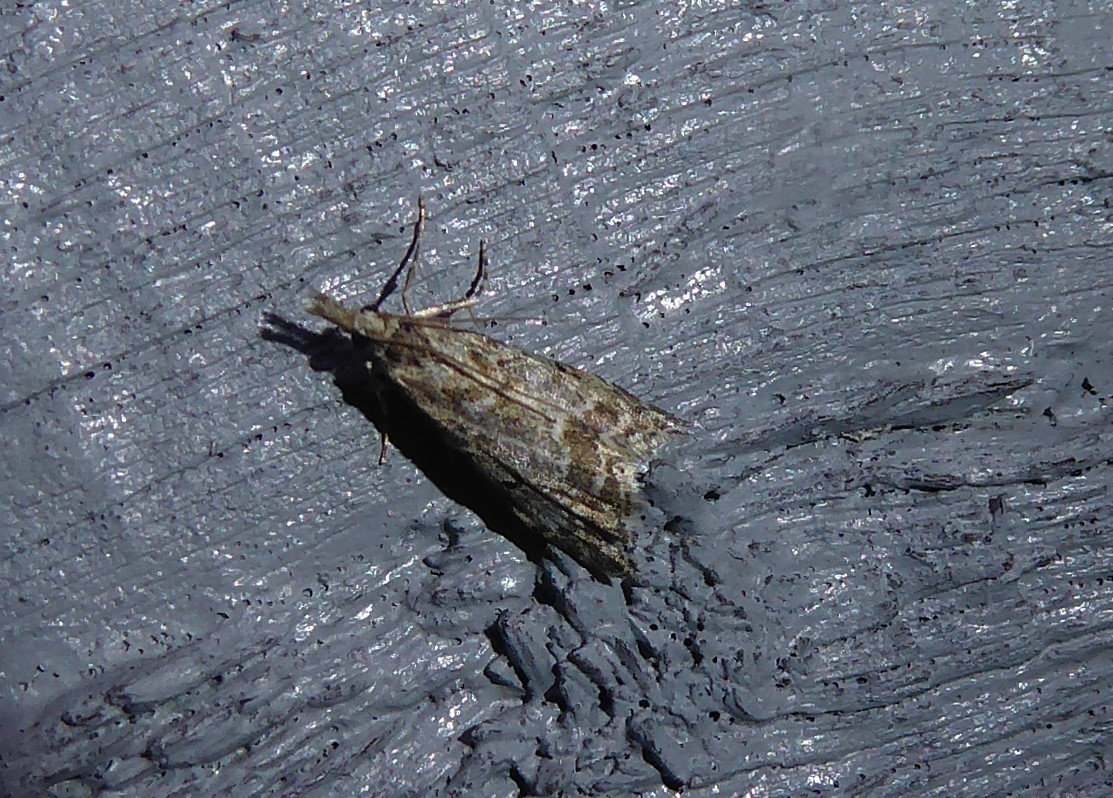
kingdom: Animalia
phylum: Arthropoda
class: Insecta
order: Lepidoptera
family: Crambidae
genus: Glaucocharis
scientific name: Glaucocharis elaina
